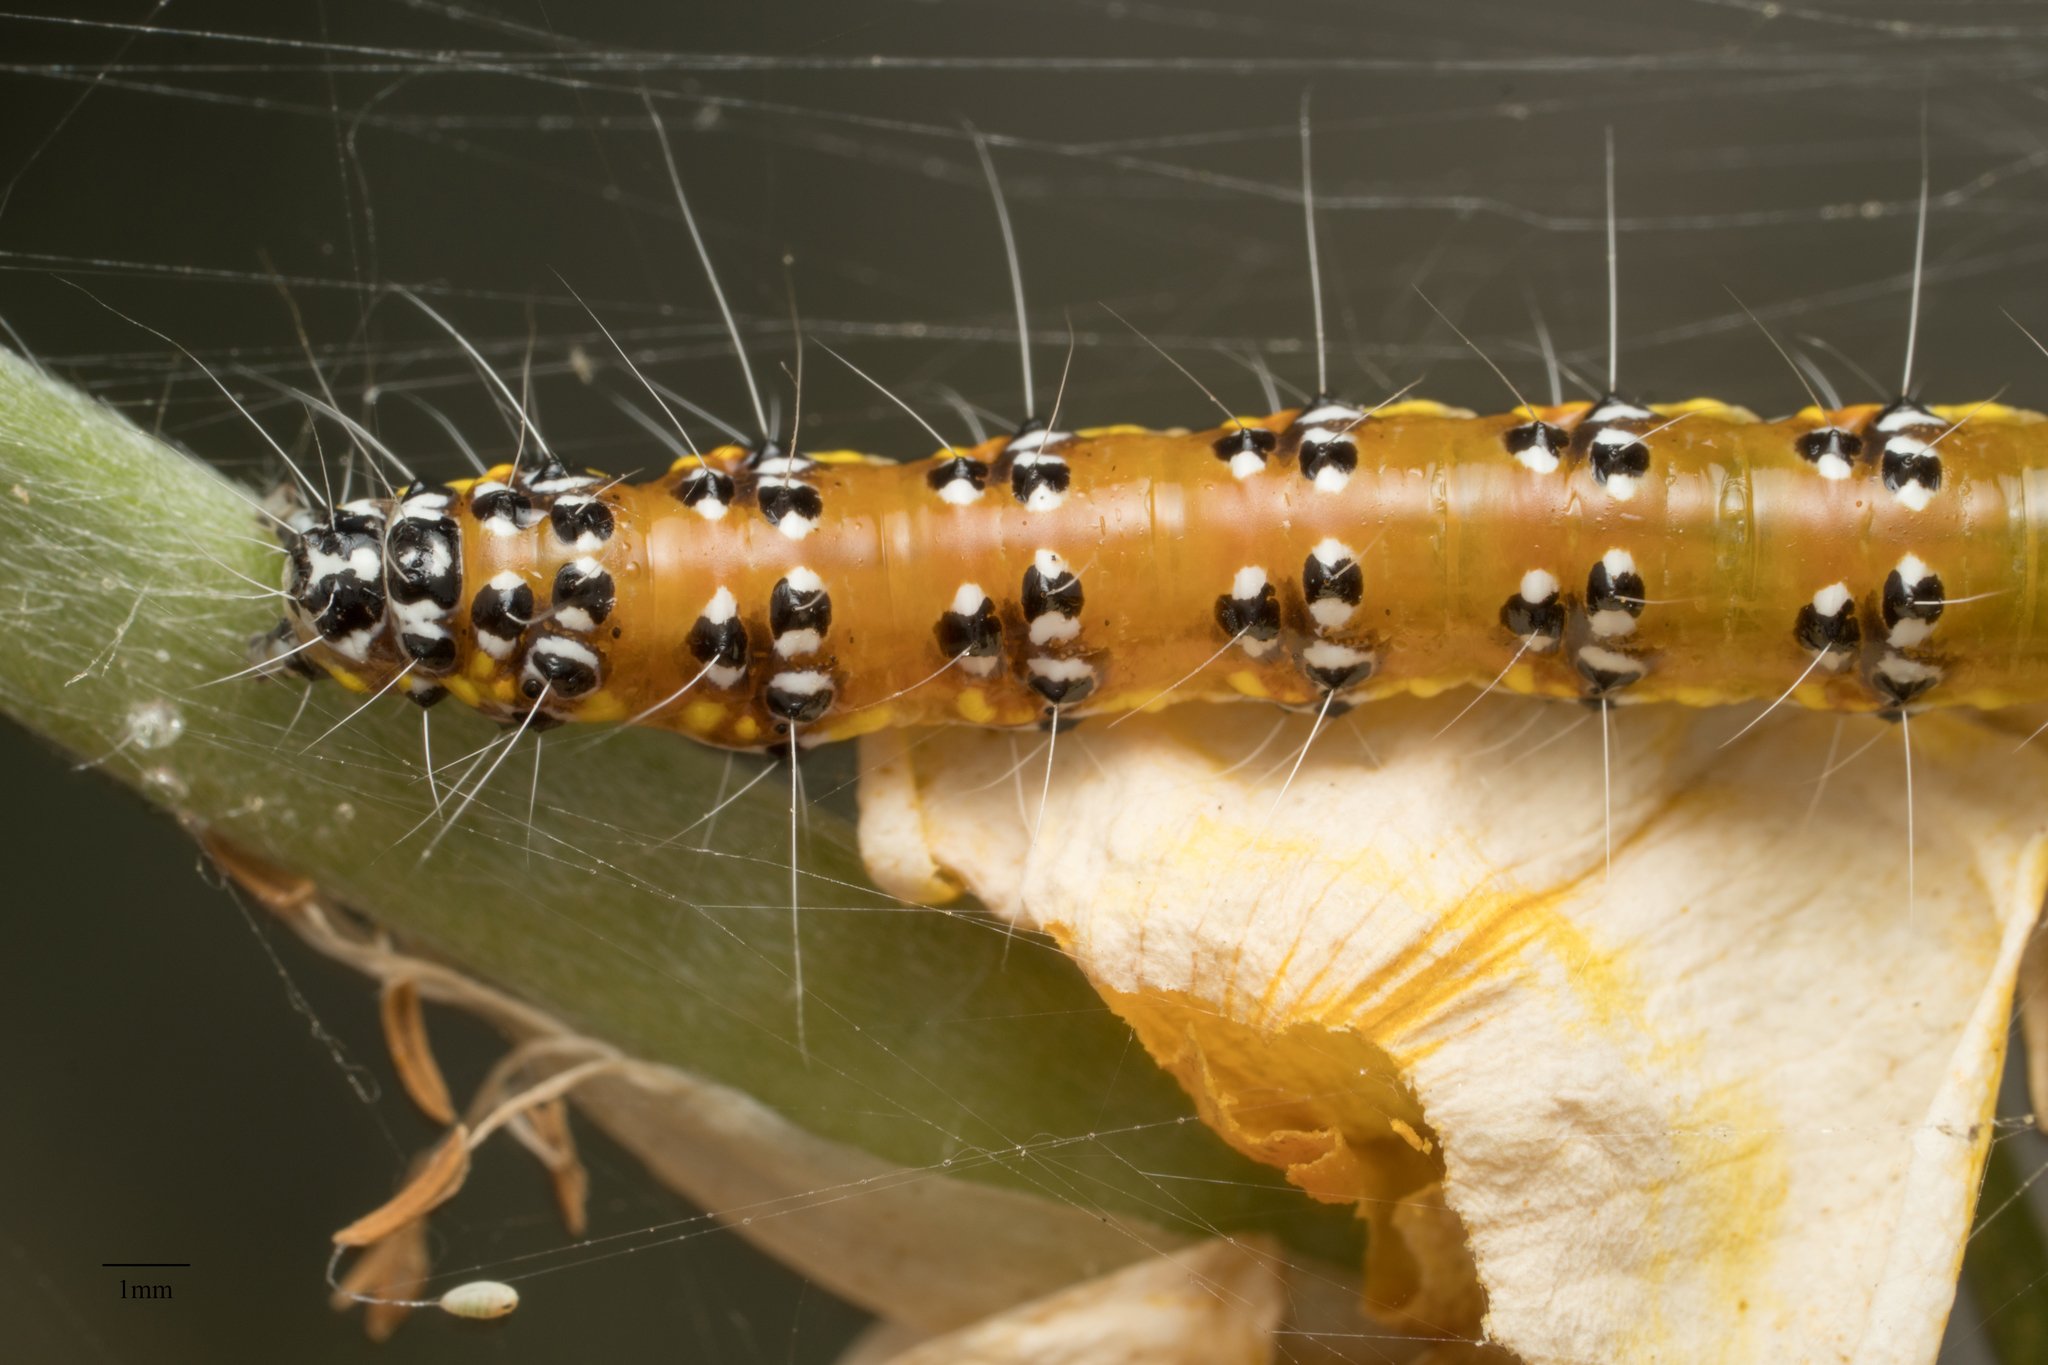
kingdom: Animalia
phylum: Arthropoda
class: Insecta
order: Lepidoptera
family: Crambidae
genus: Uresiphita
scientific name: Uresiphita reversalis
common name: Genista broom moth
